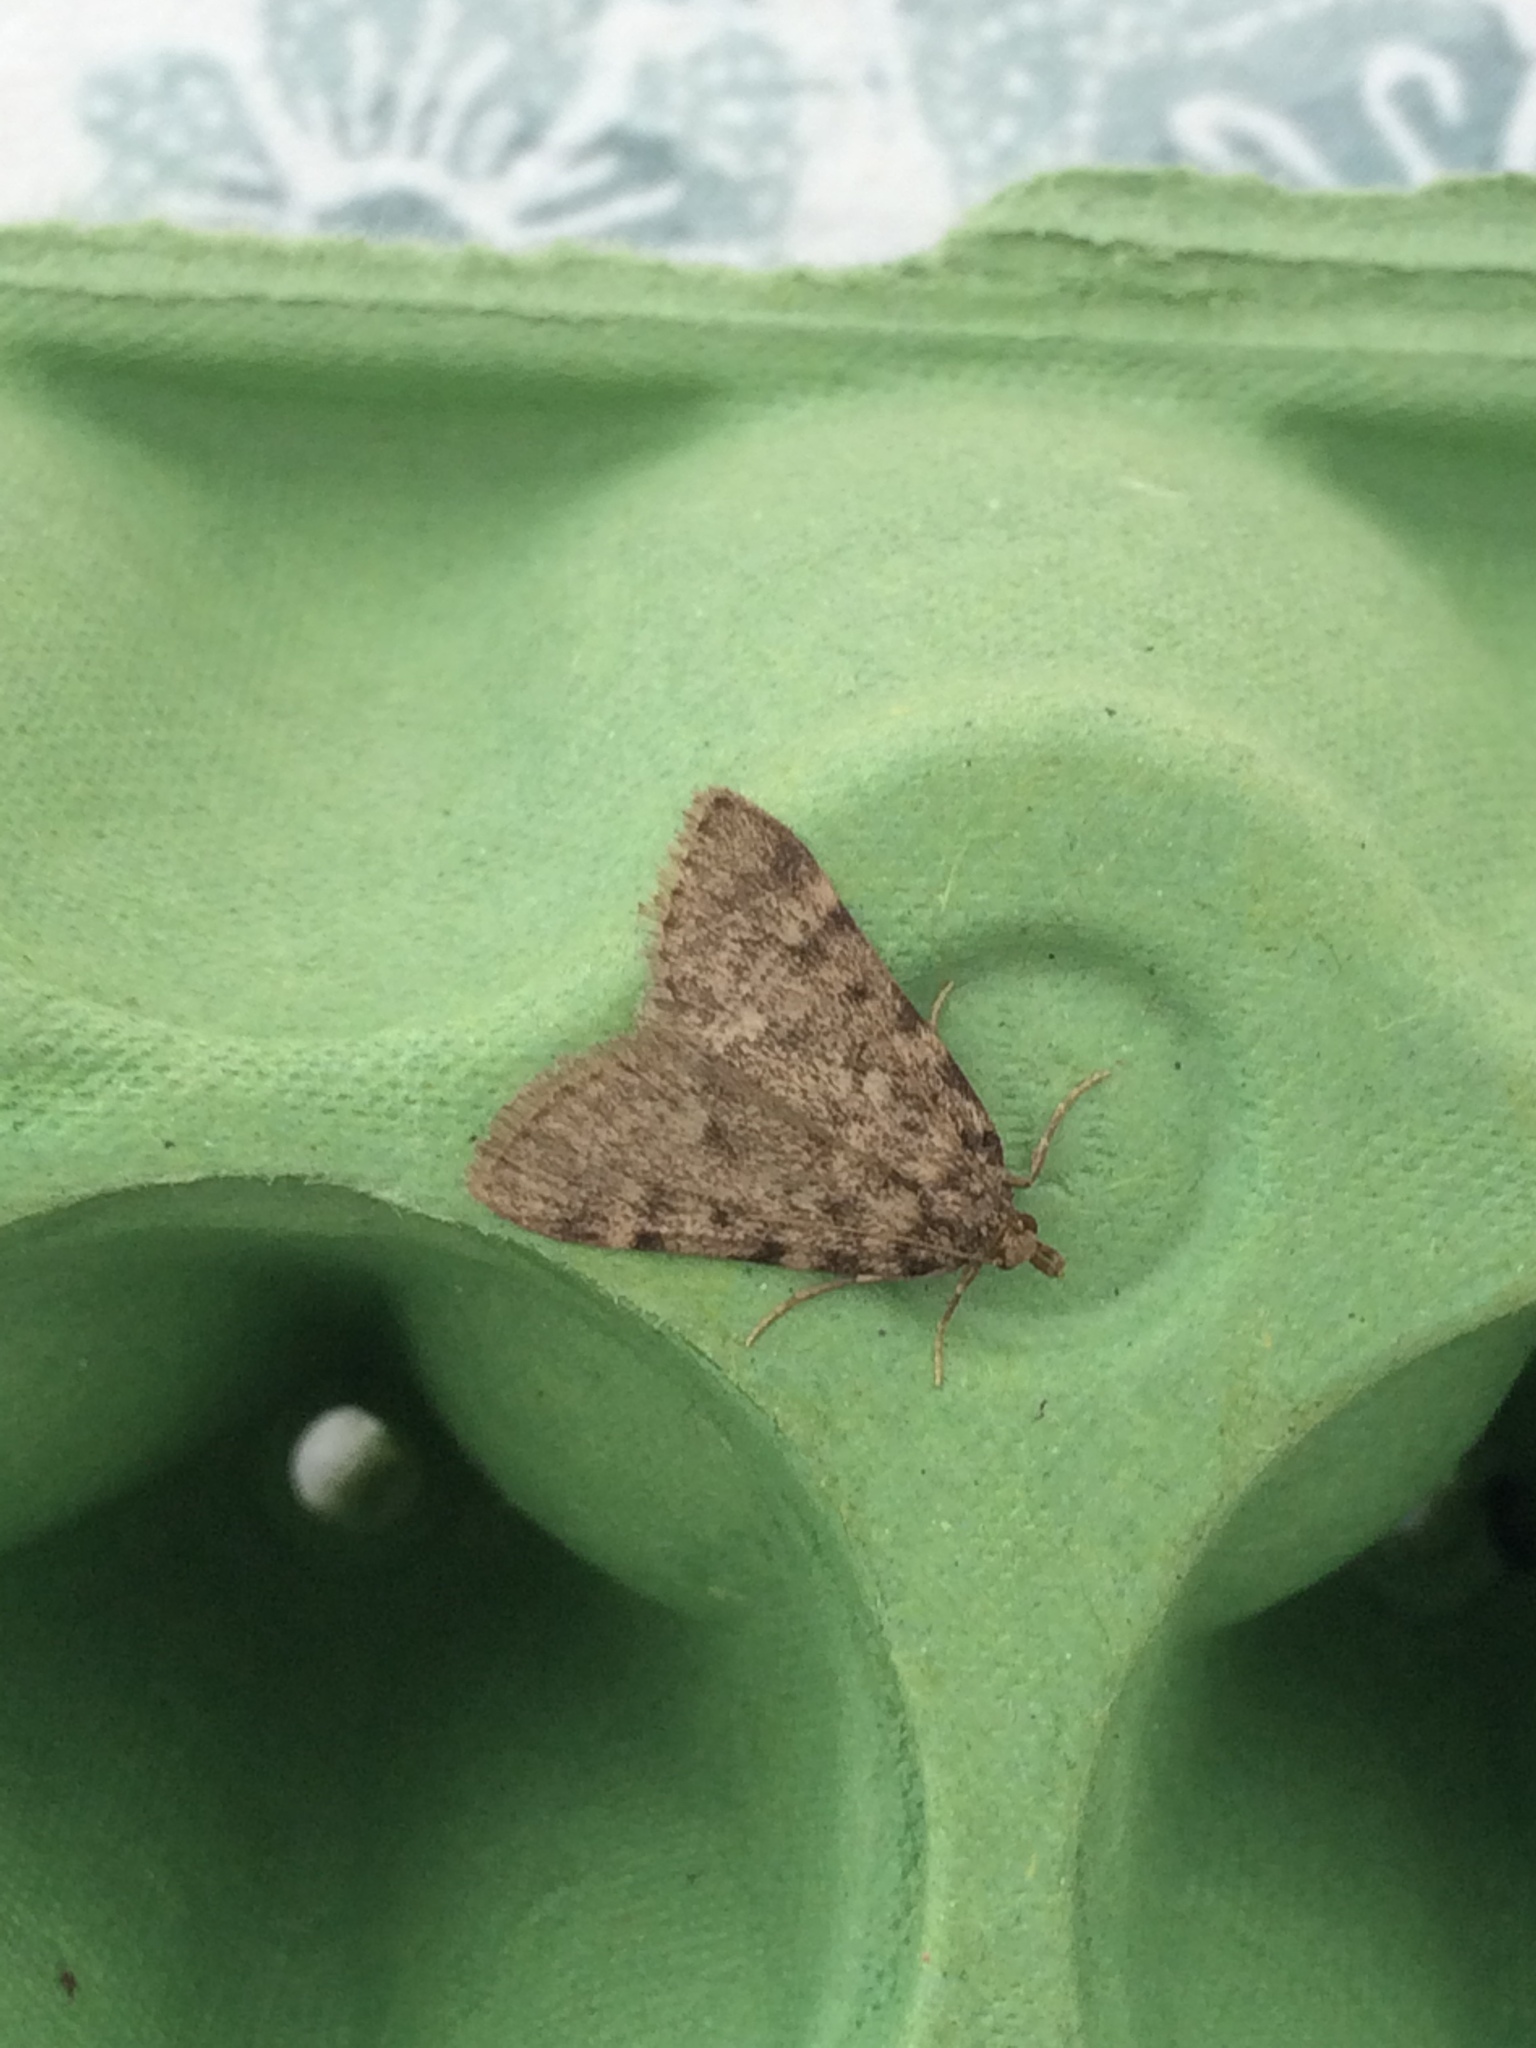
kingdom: Animalia
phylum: Arthropoda
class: Insecta
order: Lepidoptera
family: Pyralidae
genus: Aglossa
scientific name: Aglossa pinguinalis
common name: Large tabby
